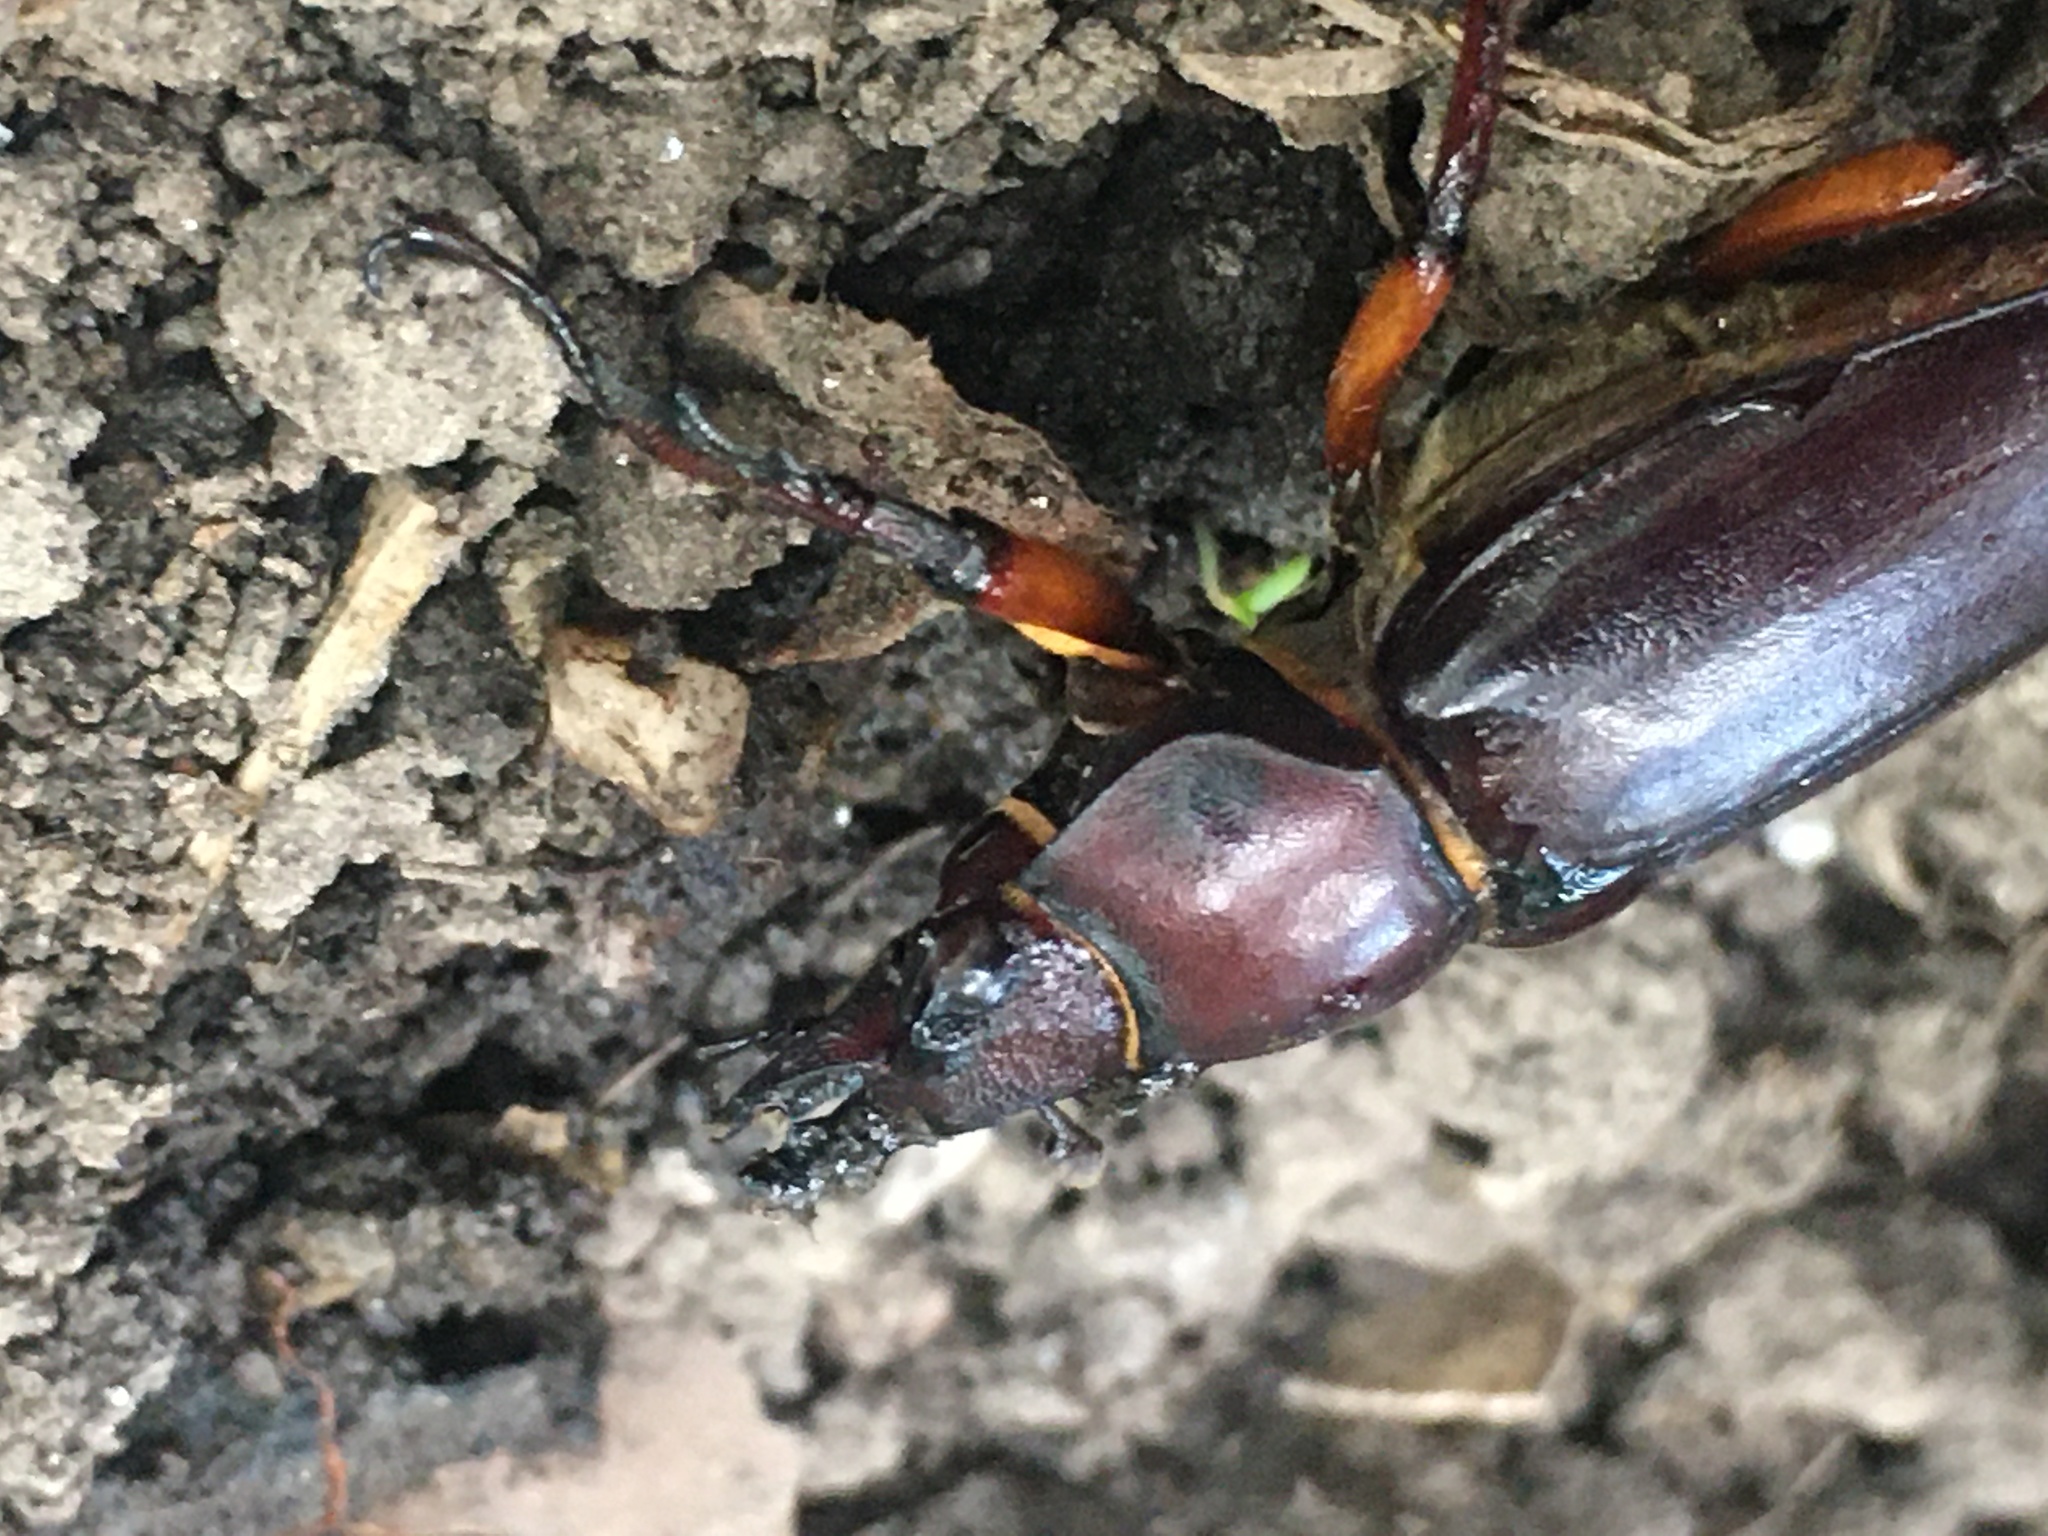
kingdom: Animalia
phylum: Arthropoda
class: Insecta
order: Coleoptera
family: Lucanidae
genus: Lucanus
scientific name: Lucanus capreolus
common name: Stag beetle
